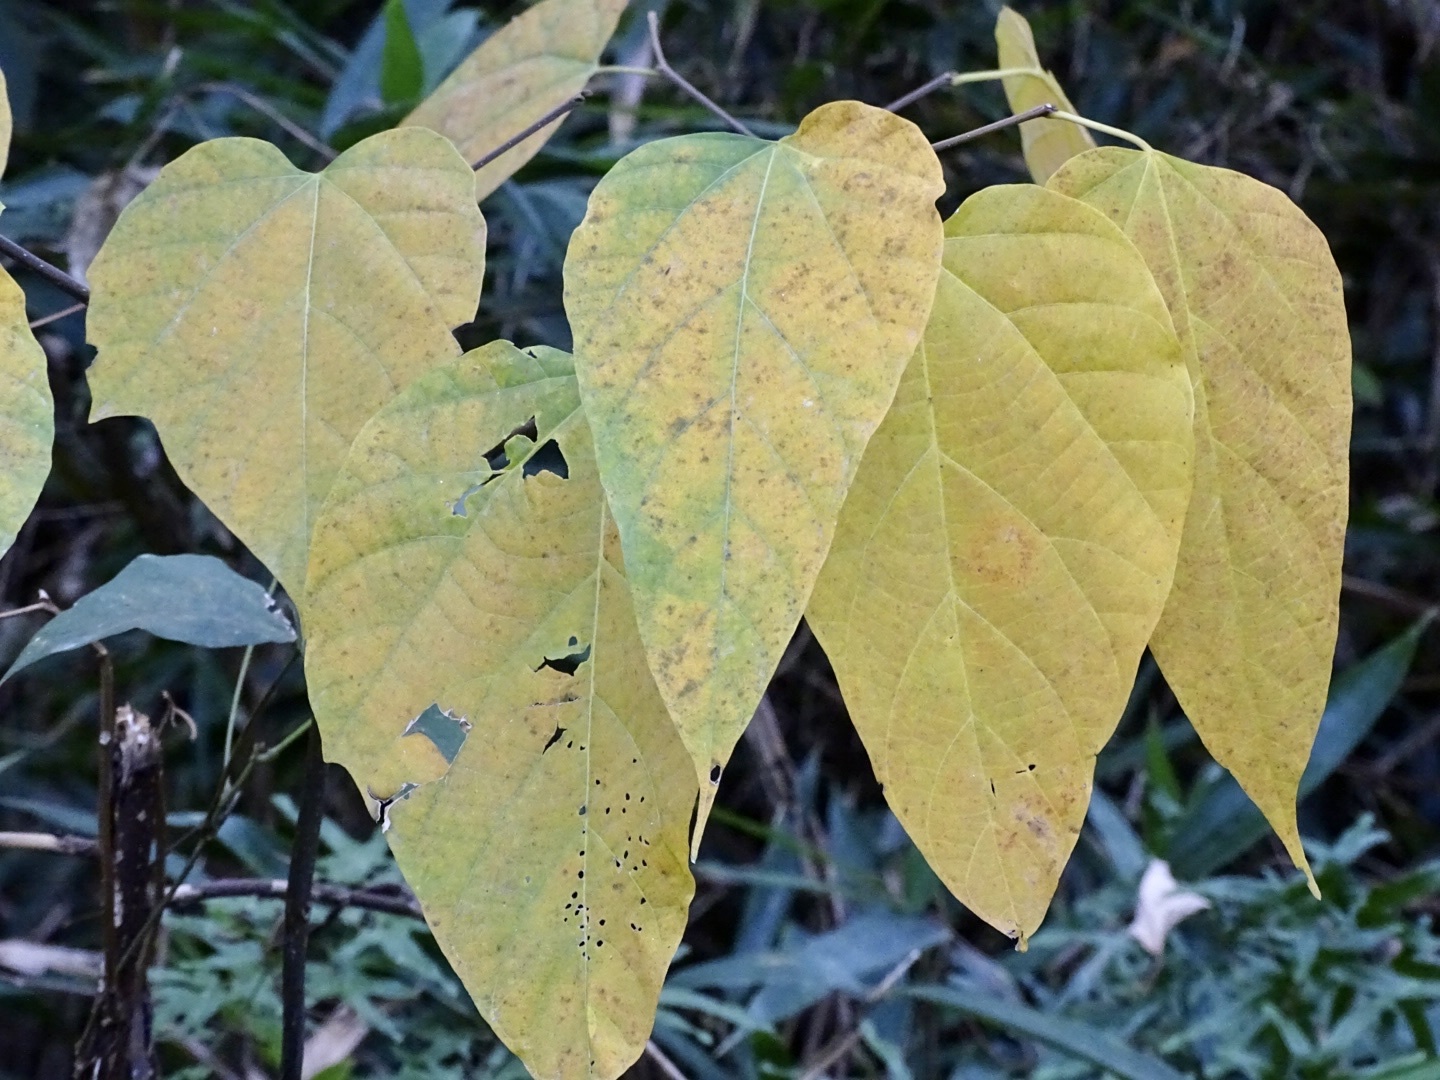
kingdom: Plantae
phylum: Tracheophyta
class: Magnoliopsida
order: Cornales
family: Cornaceae
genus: Alangium
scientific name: Alangium chinense
